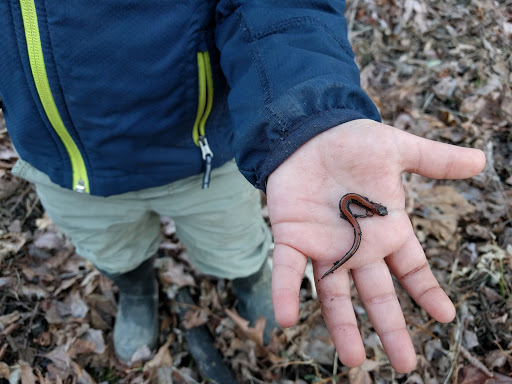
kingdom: Animalia
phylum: Chordata
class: Amphibia
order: Caudata
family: Plethodontidae
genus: Plethodon
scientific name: Plethodon cinereus
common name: Redback salamander
